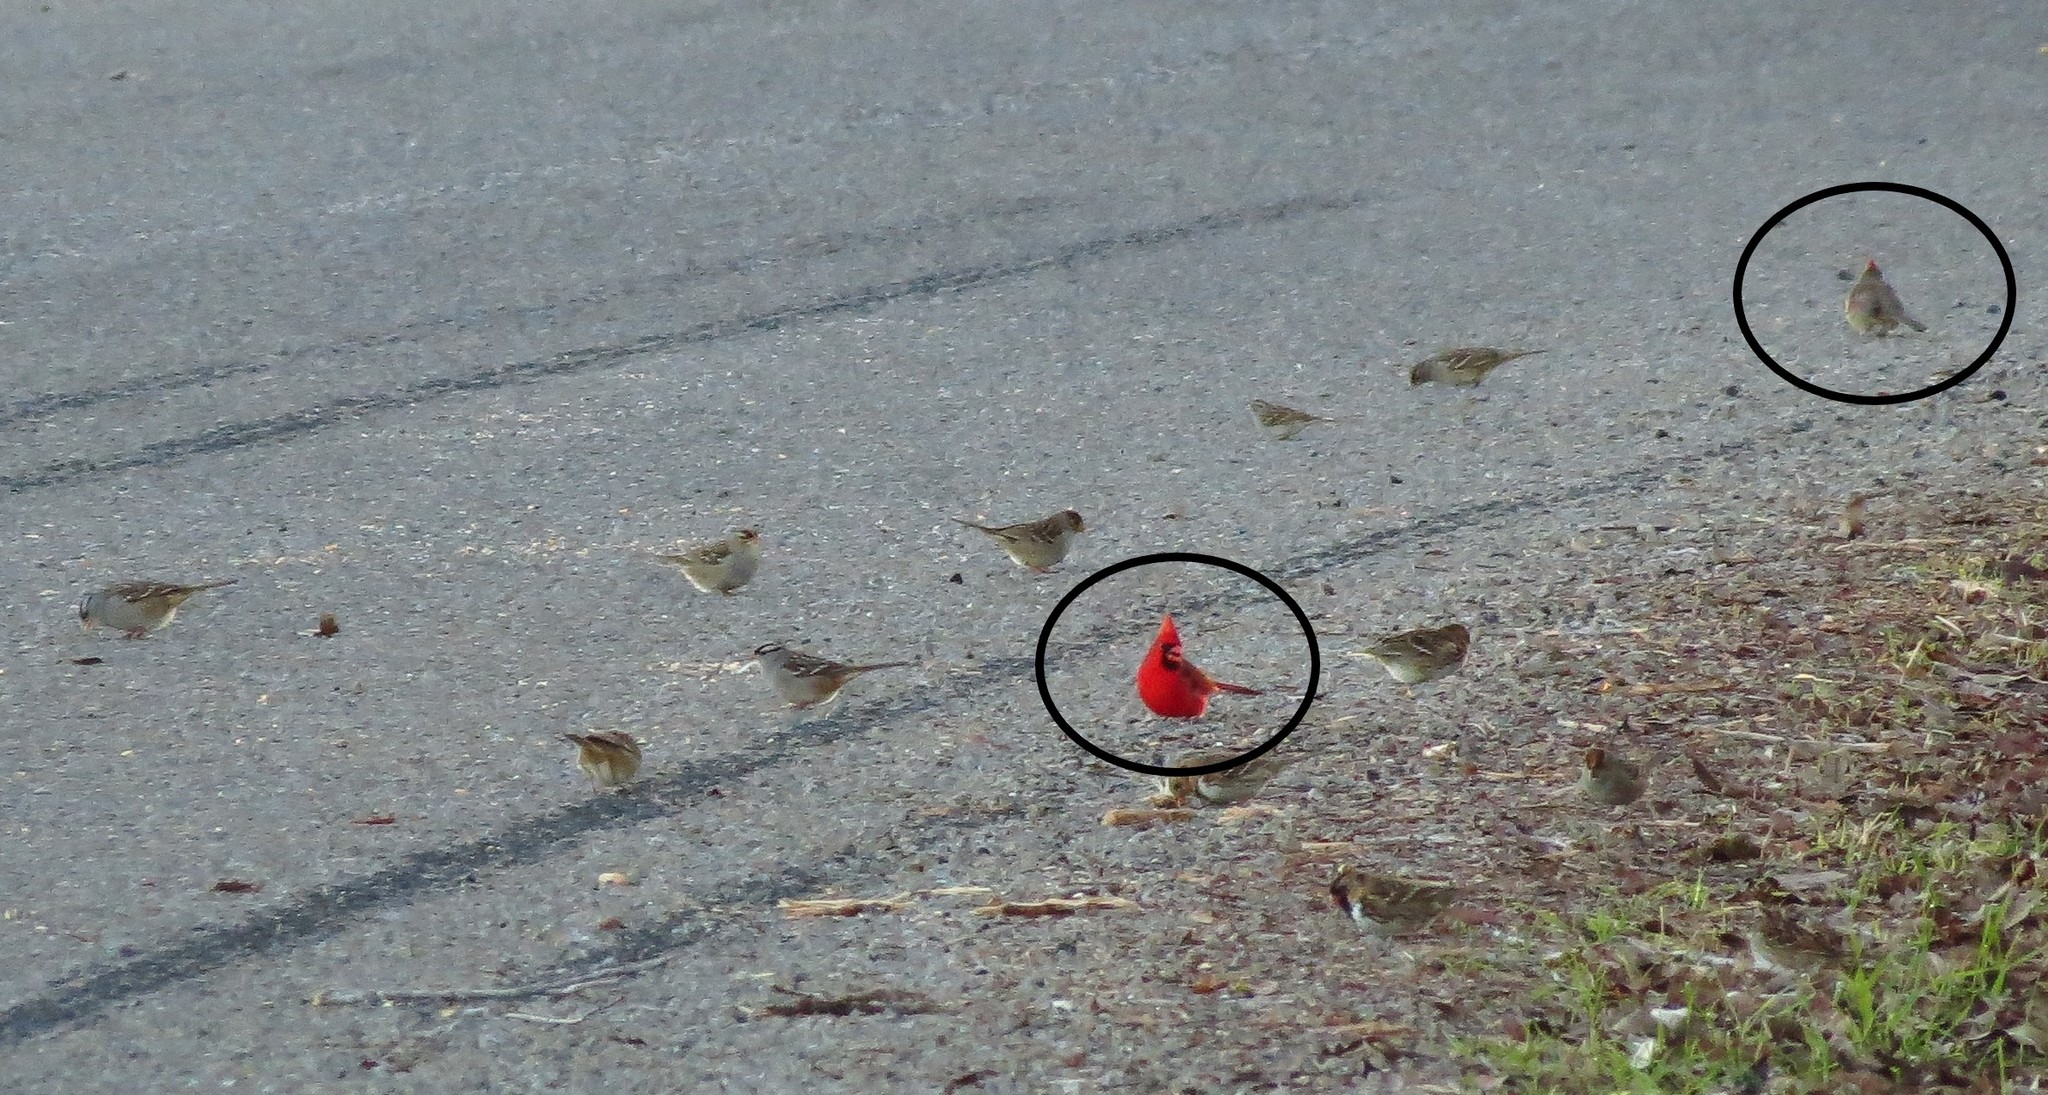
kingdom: Animalia
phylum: Chordata
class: Aves
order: Passeriformes
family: Cardinalidae
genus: Cardinalis
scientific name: Cardinalis cardinalis
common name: Northern cardinal
